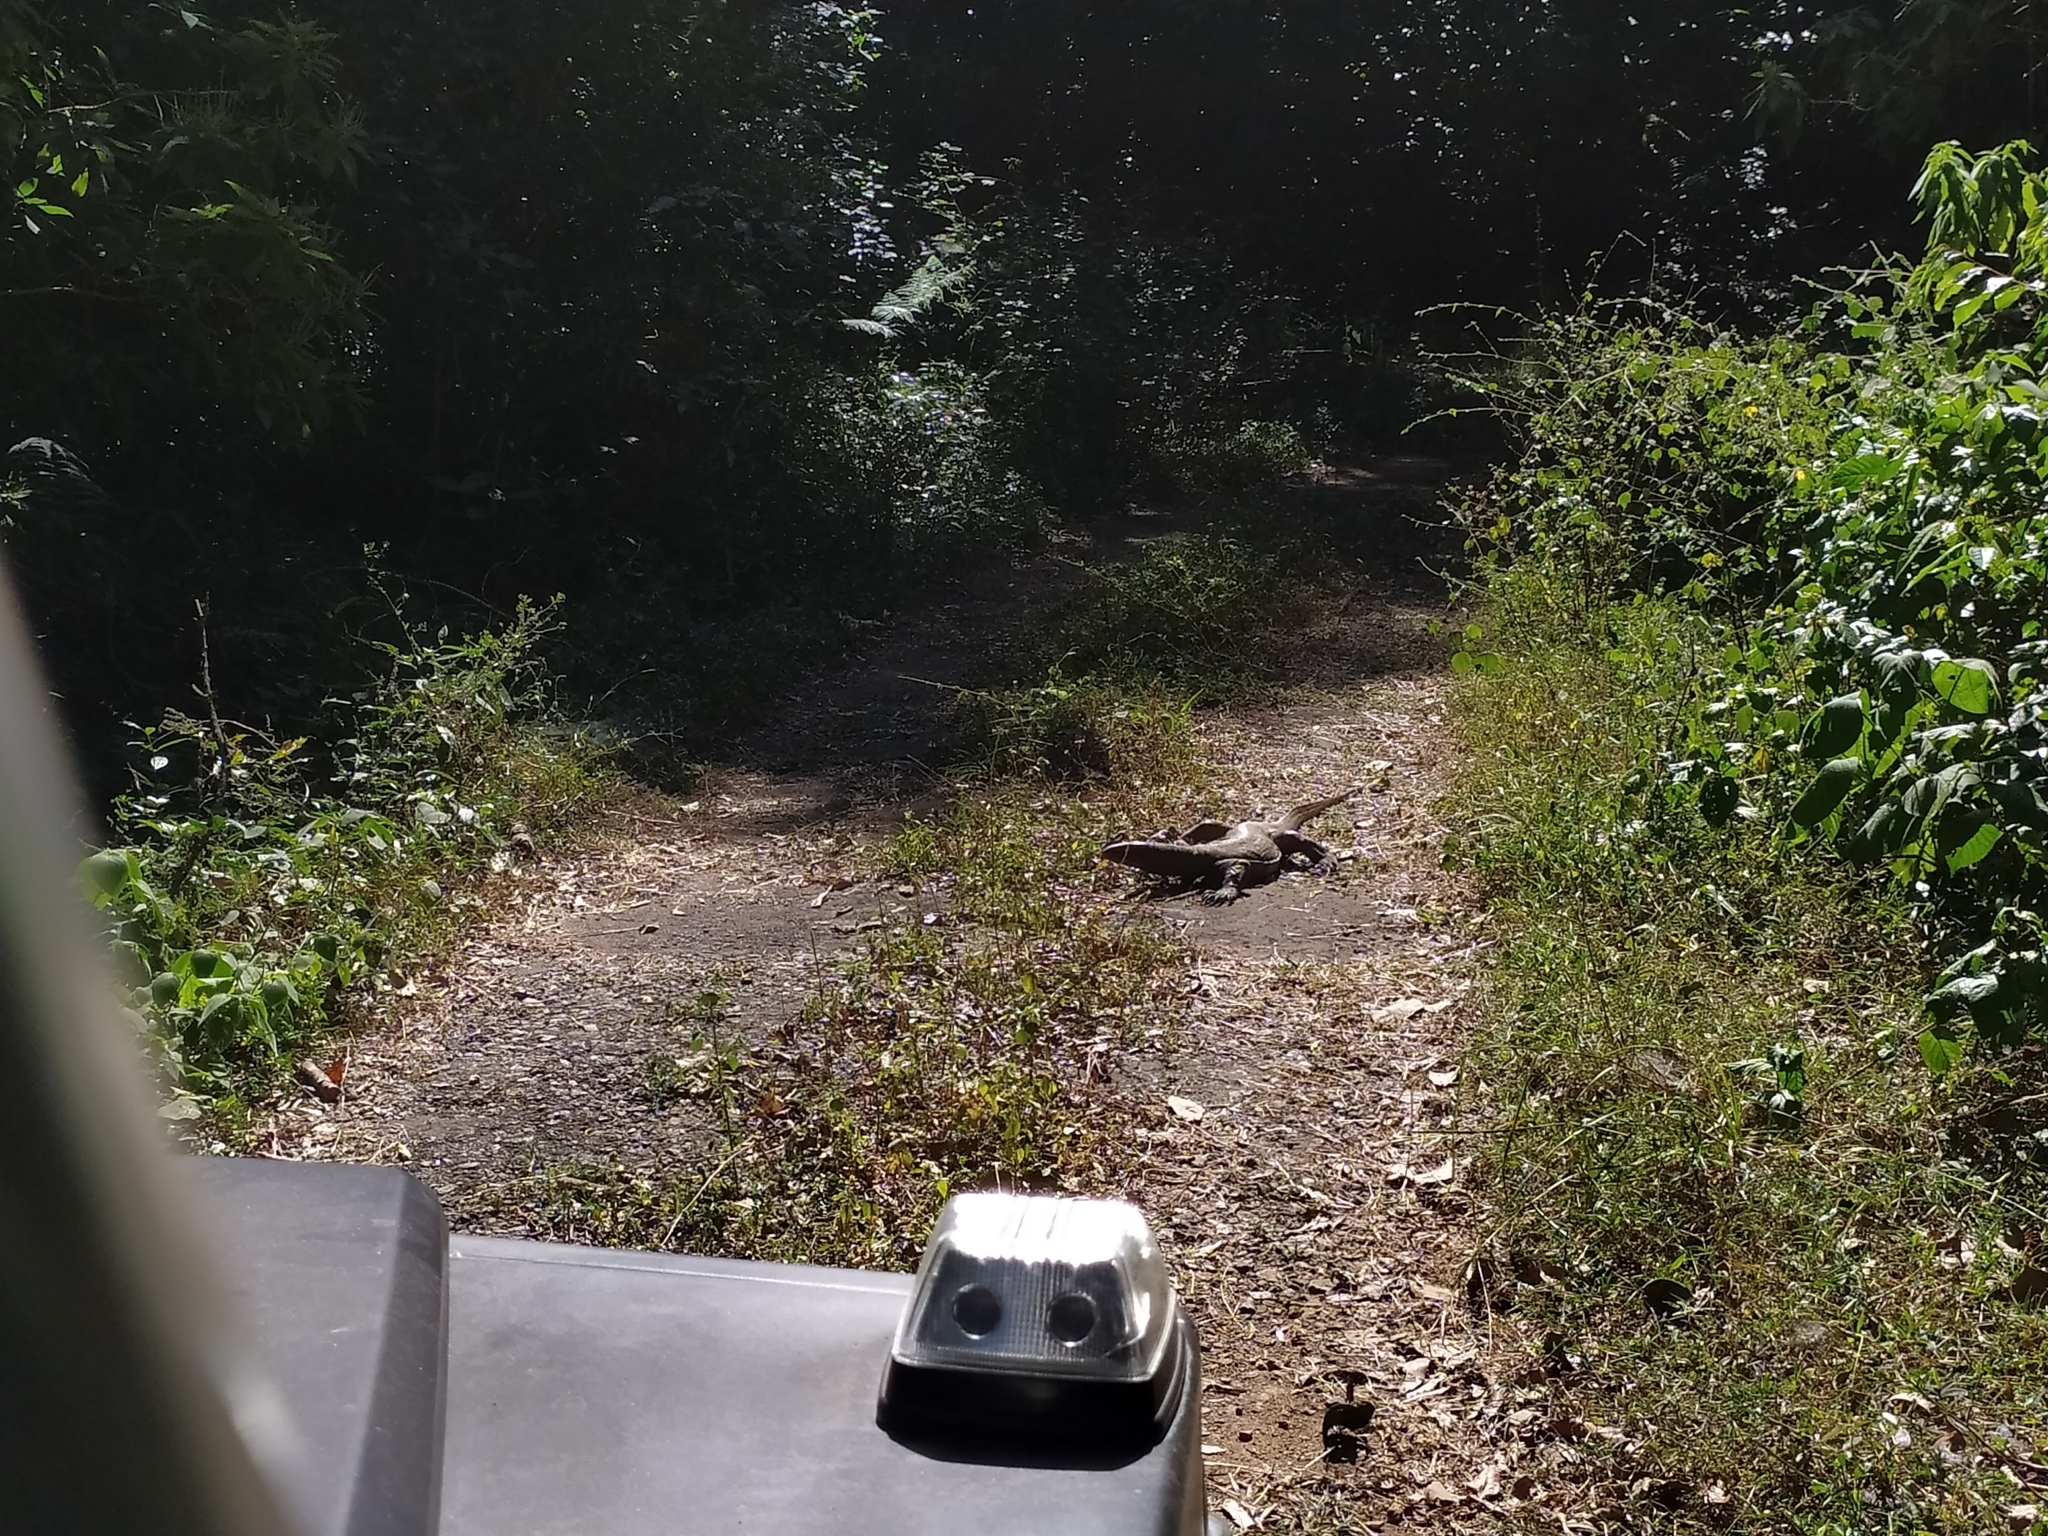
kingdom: Animalia
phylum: Chordata
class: Squamata
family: Varanidae
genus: Varanus
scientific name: Varanus bengalensis
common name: Bengal monitor
